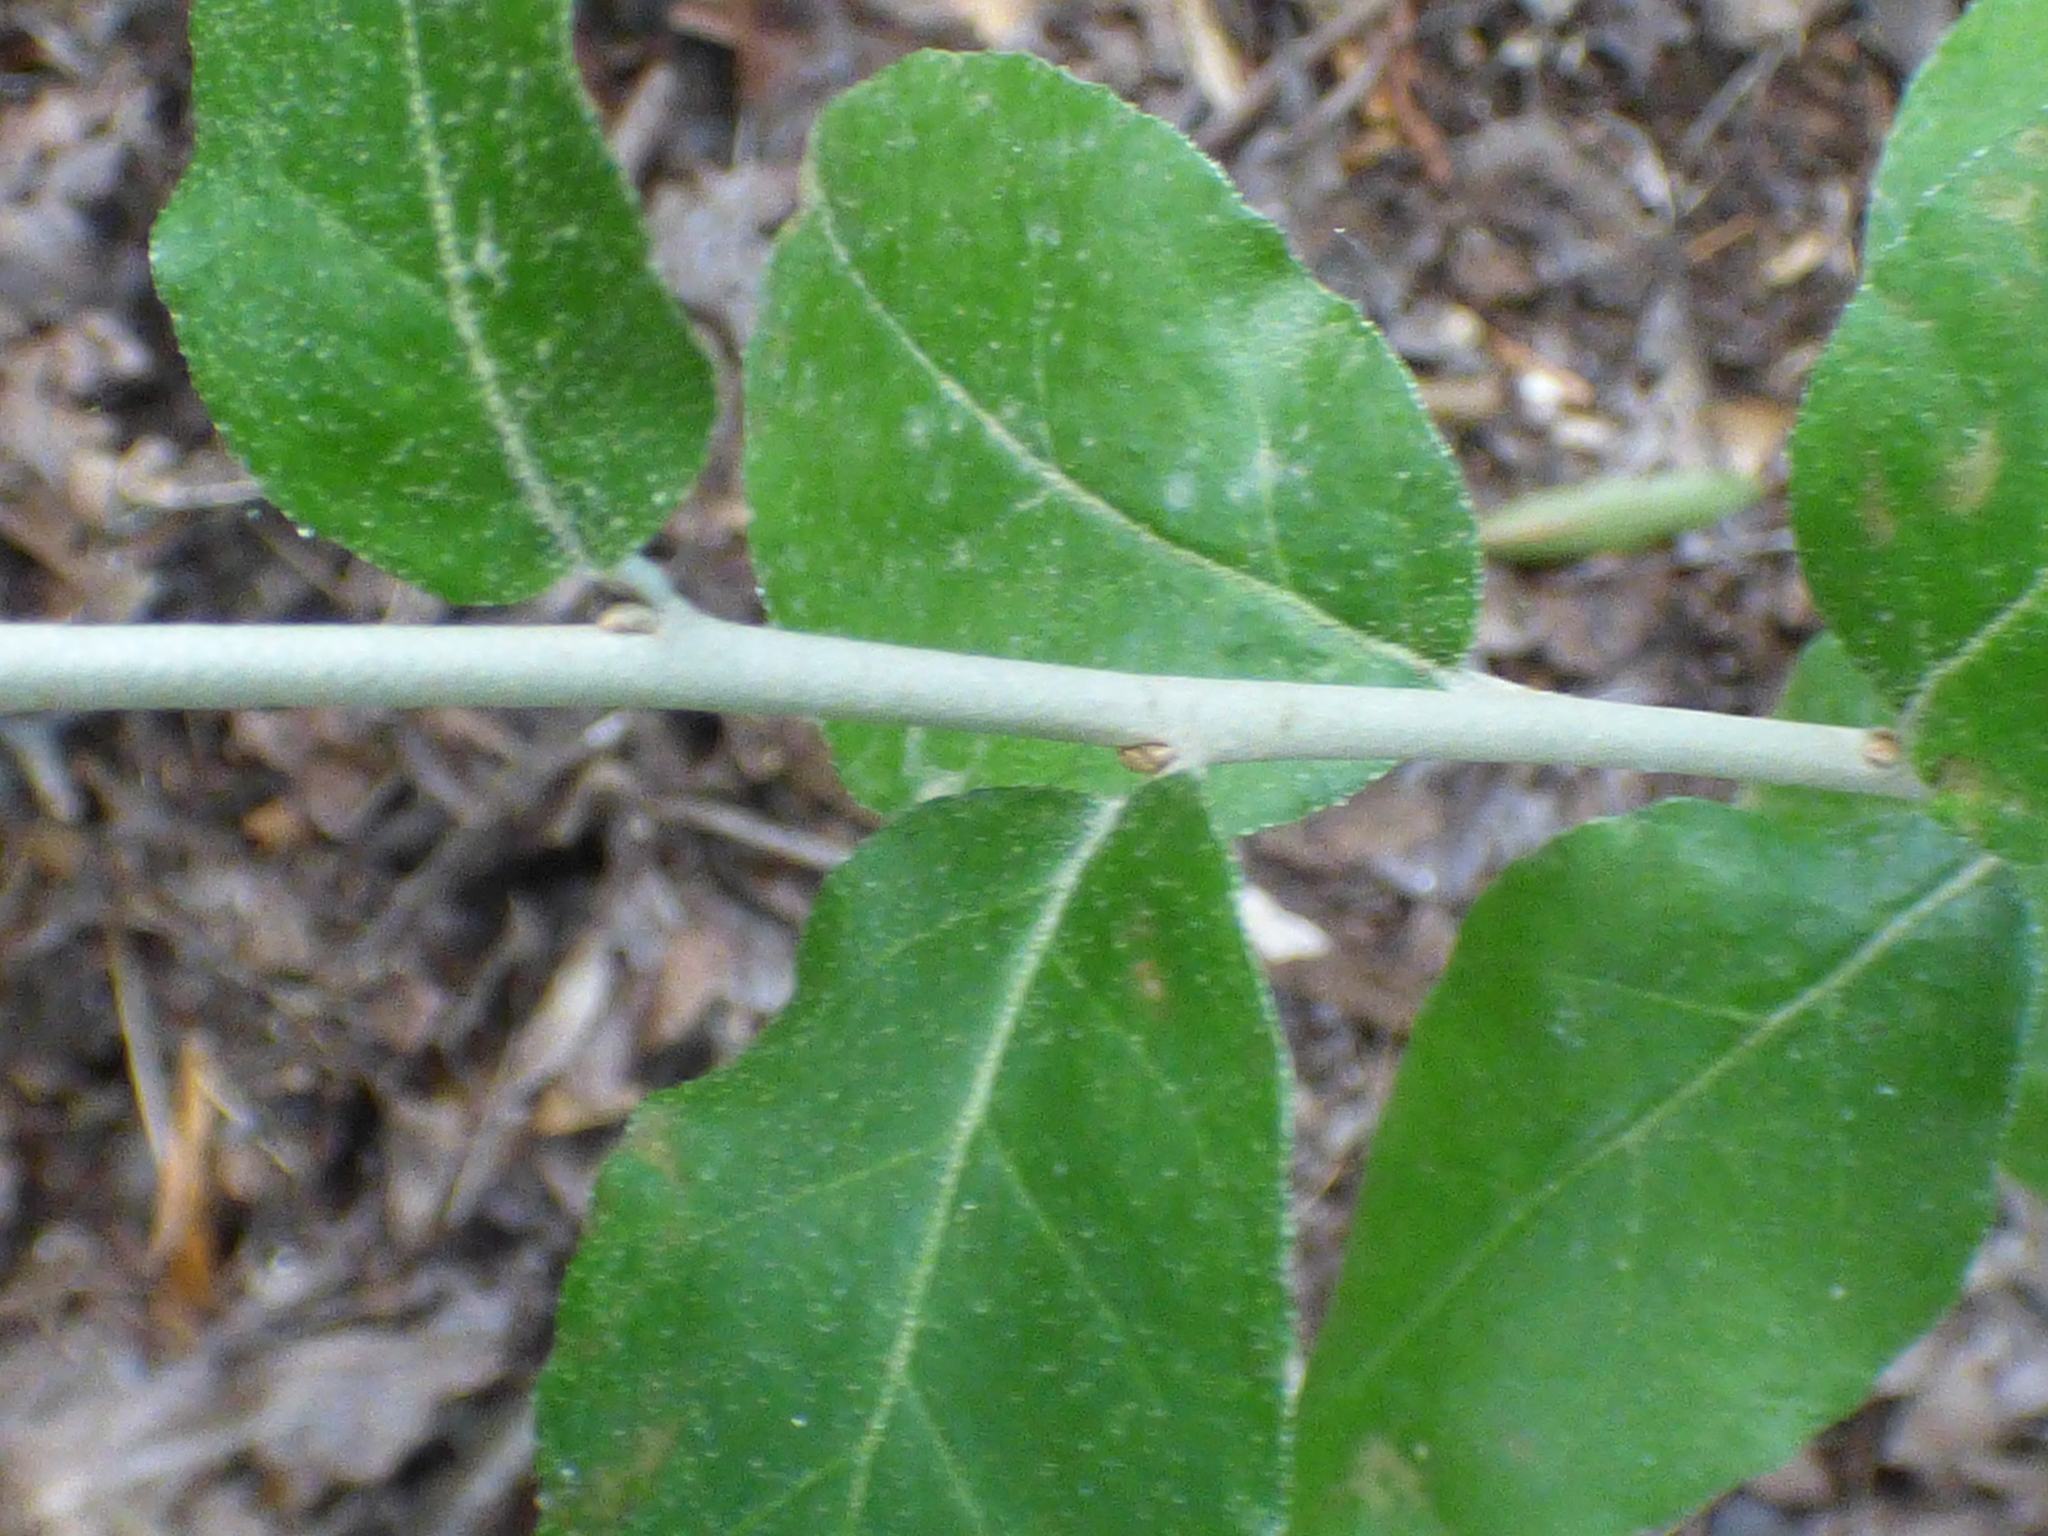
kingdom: Plantae
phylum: Tracheophyta
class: Magnoliopsida
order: Rosales
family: Elaeagnaceae
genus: Elaeagnus
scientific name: Elaeagnus umbellata
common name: Autumn olive
